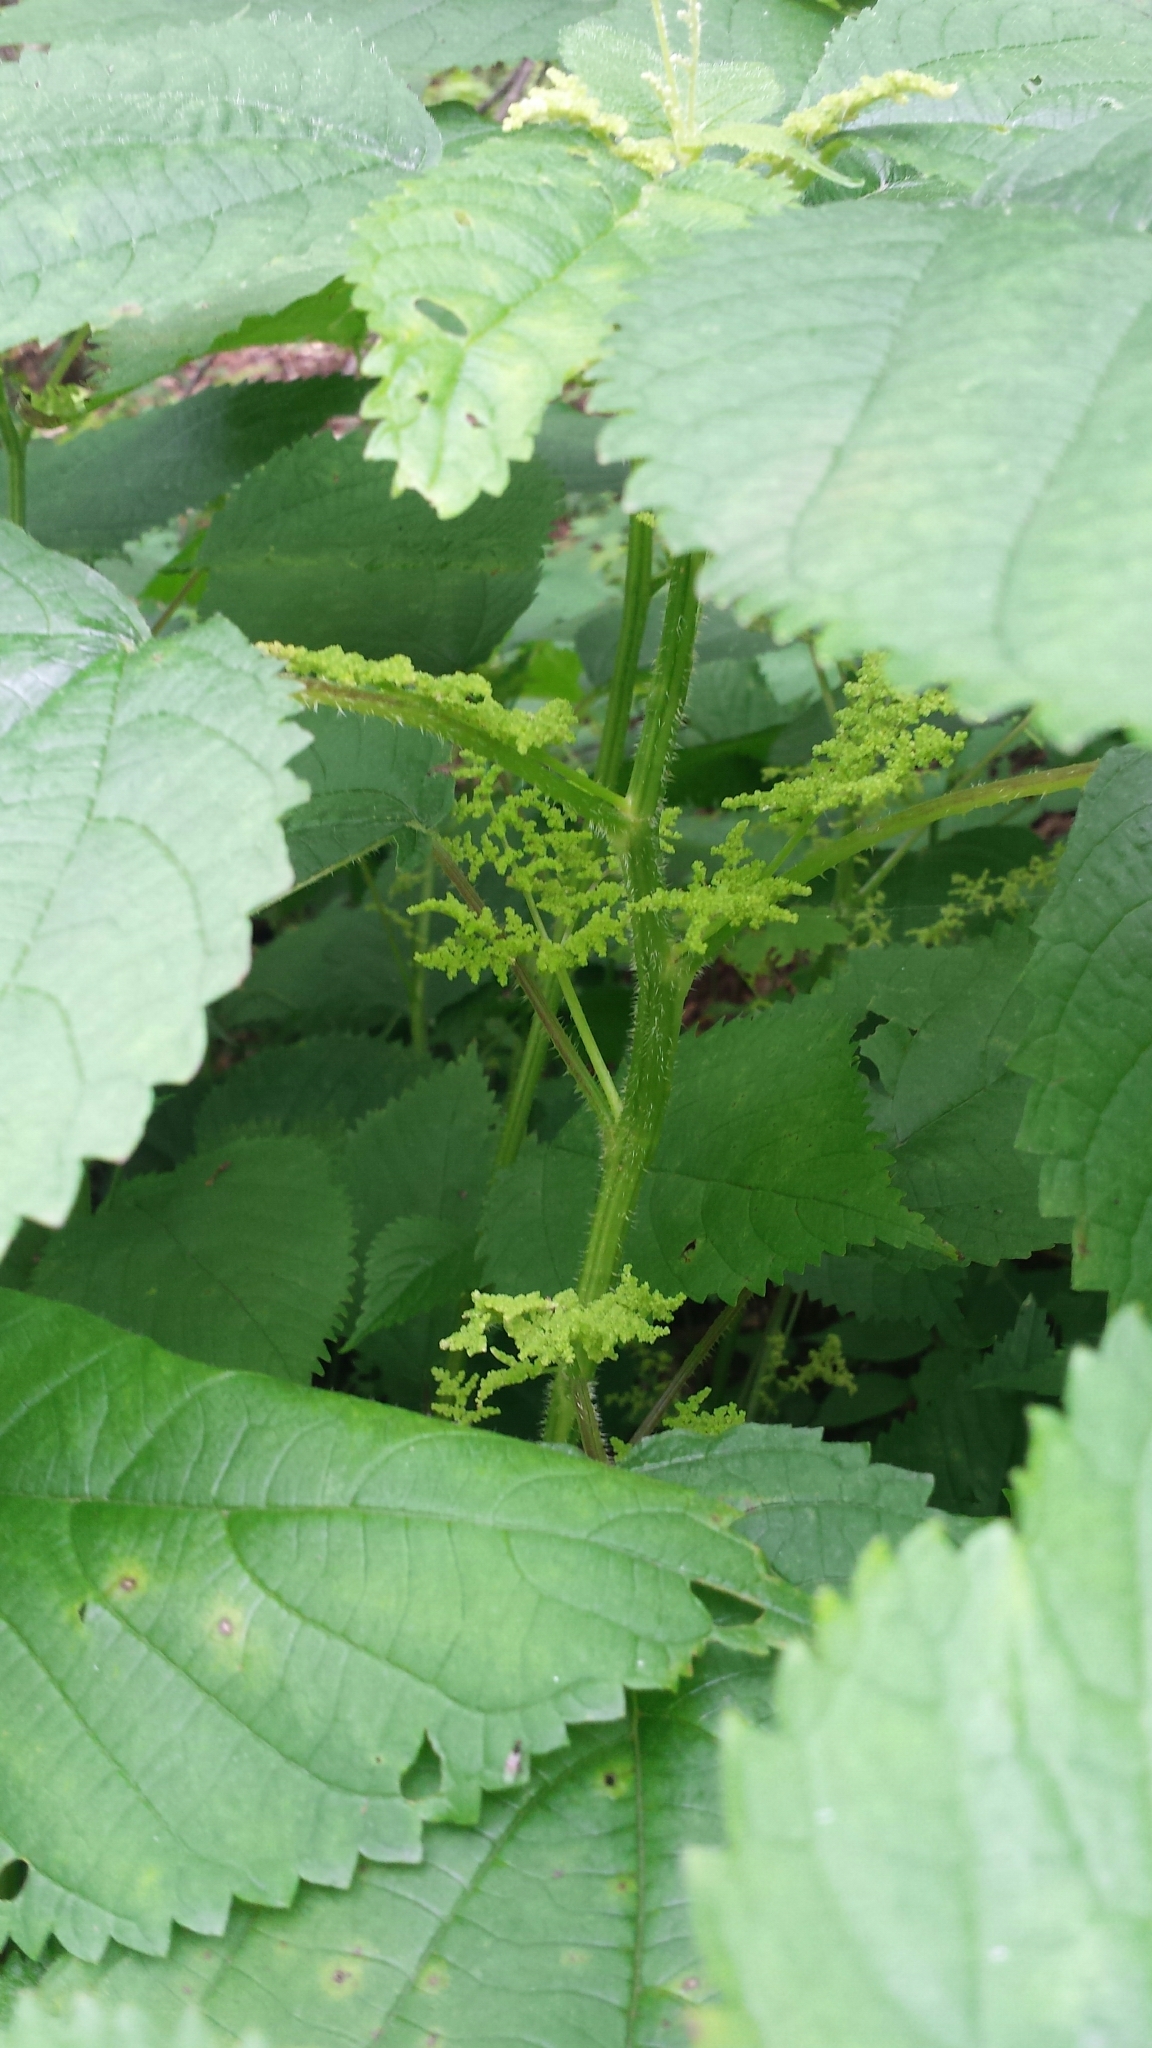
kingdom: Plantae
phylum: Tracheophyta
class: Magnoliopsida
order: Rosales
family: Urticaceae
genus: Laportea
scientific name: Laportea canadensis
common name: Canada nettle
